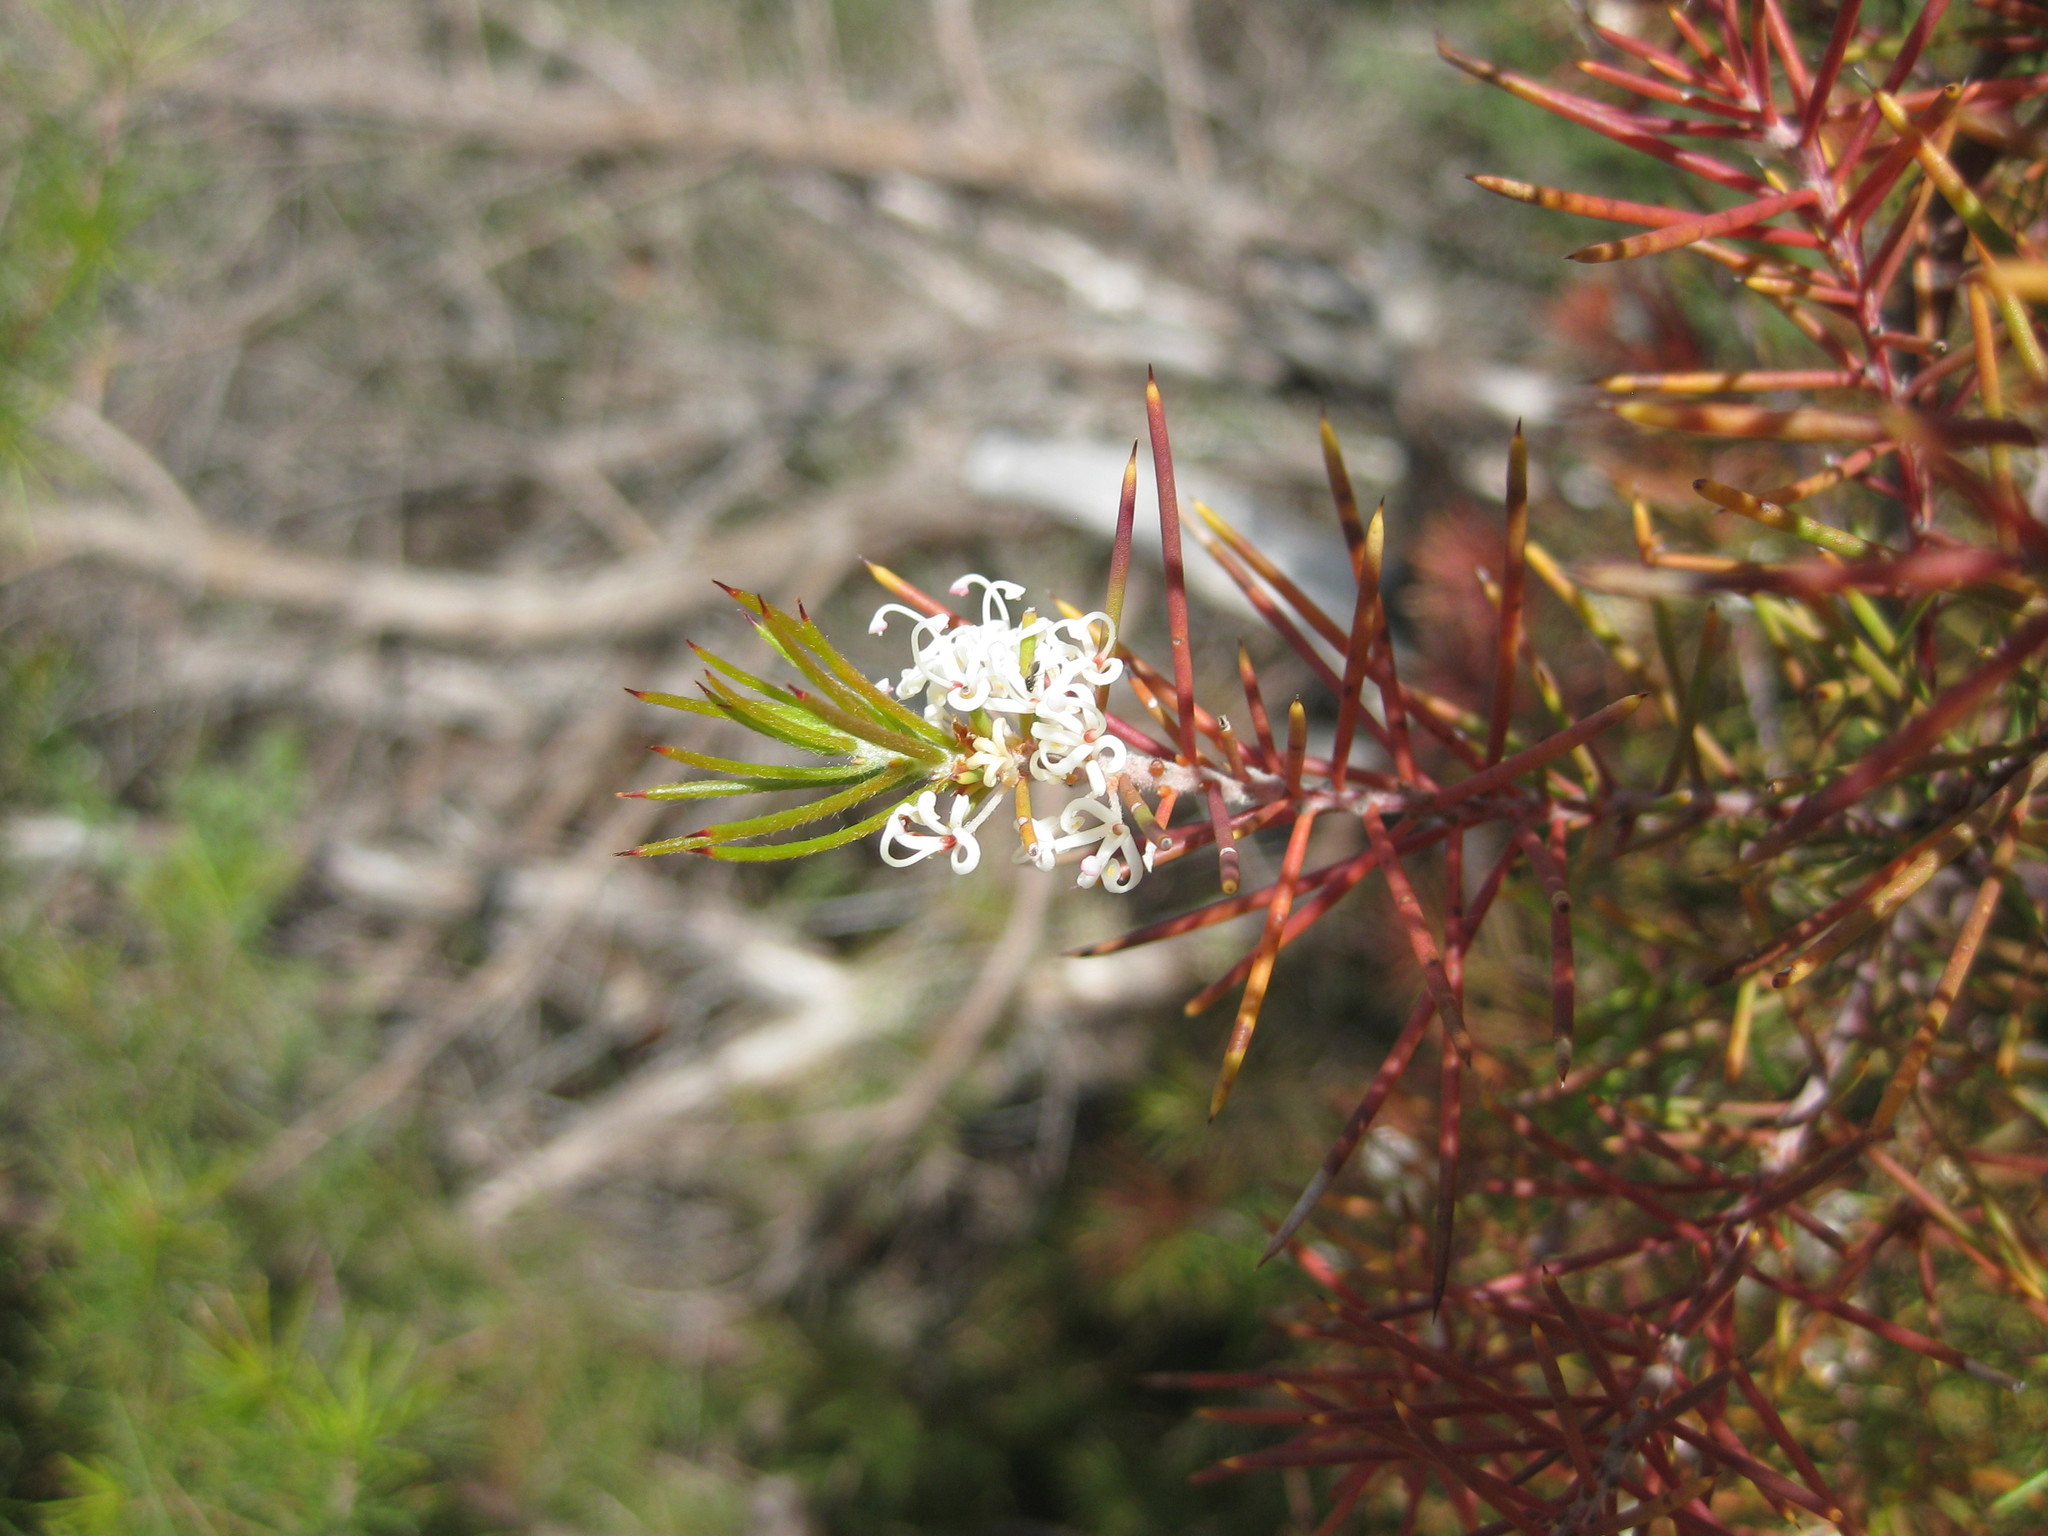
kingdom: Plantae
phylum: Tracheophyta
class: Magnoliopsida
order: Proteales
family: Proteaceae
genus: Hakea
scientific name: Hakea sericea
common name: Needle bush
